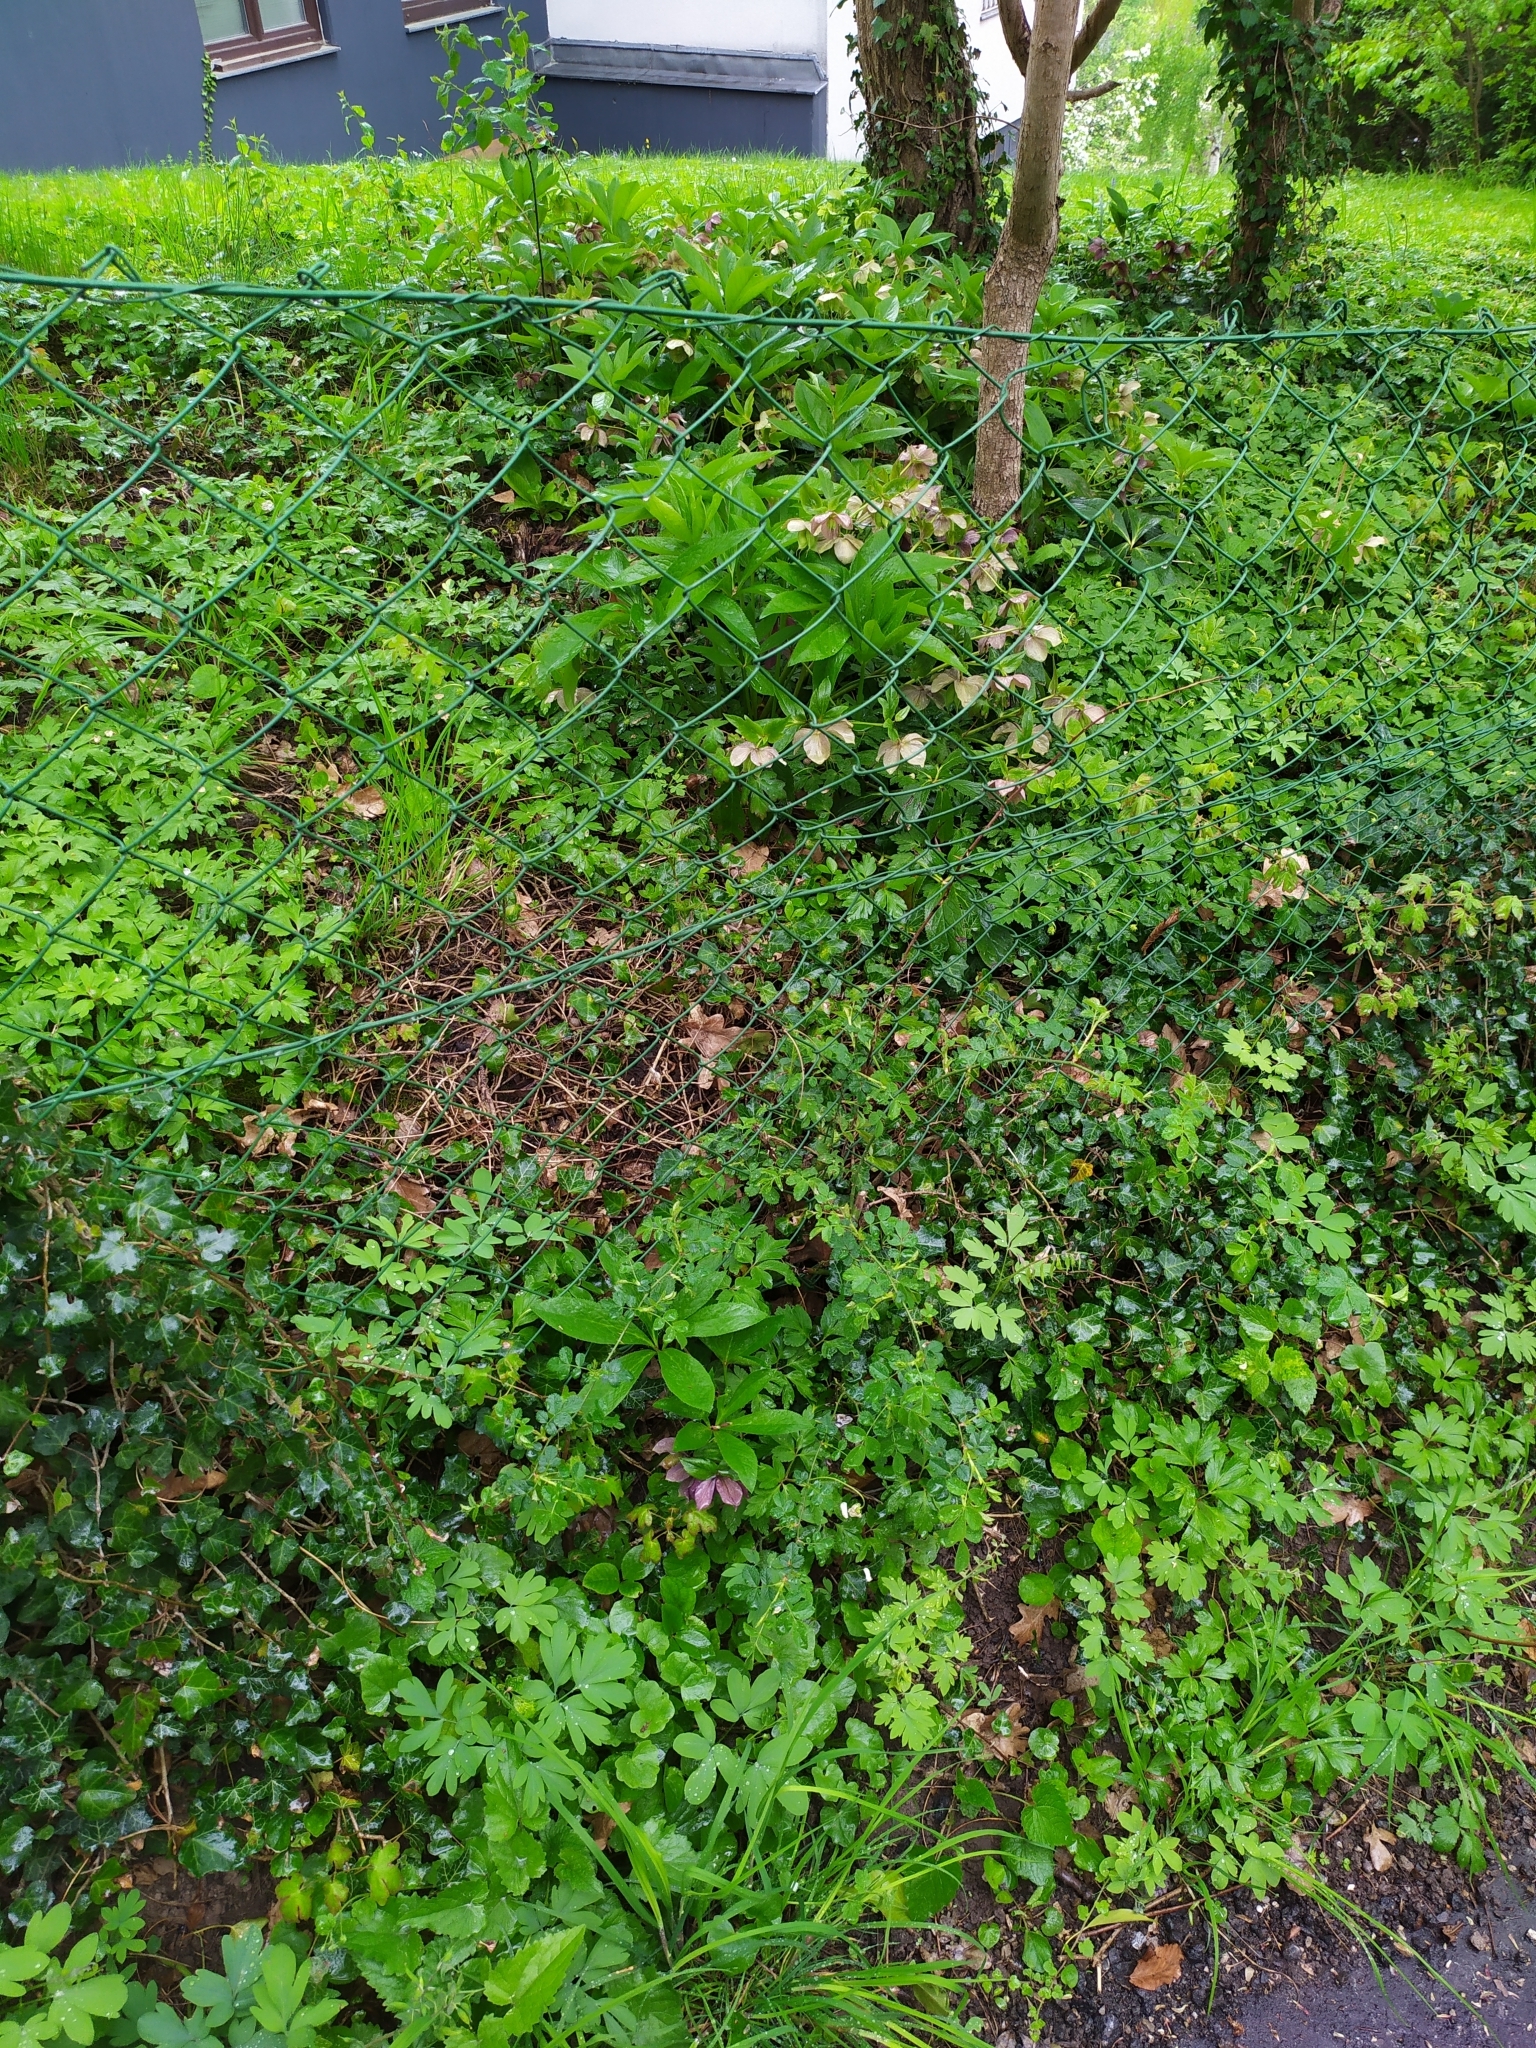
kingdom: Plantae
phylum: Tracheophyta
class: Magnoliopsida
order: Ranunculales
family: Ranunculaceae
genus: Helleborus
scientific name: Helleborus hybridus
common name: Hybrid lenten-rose
